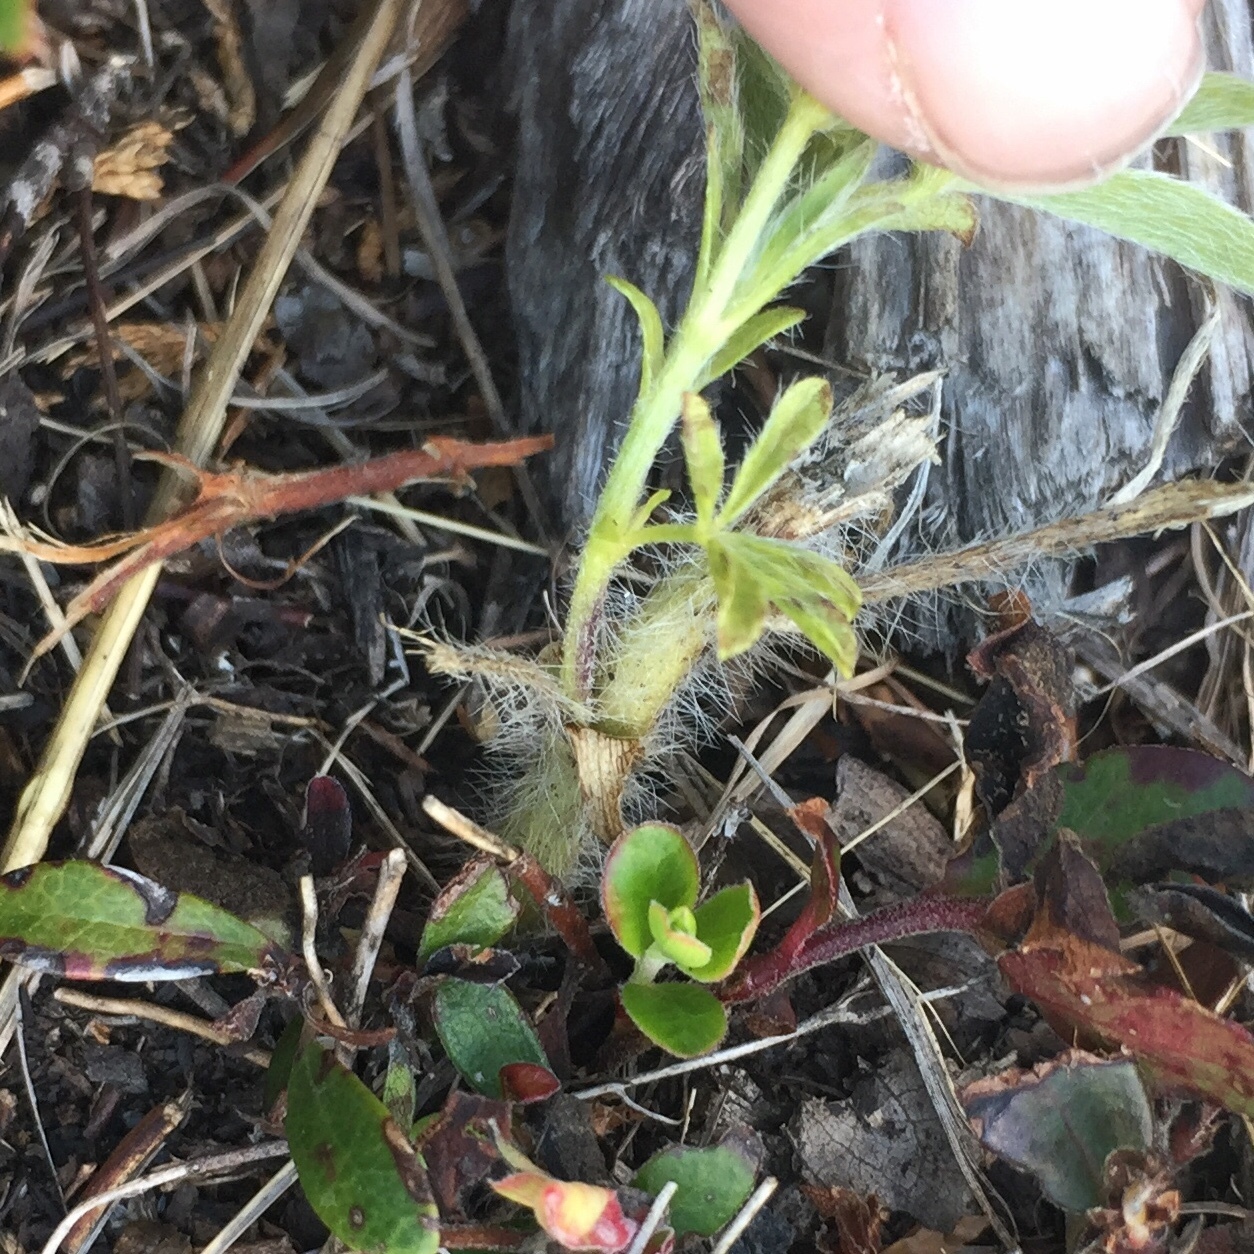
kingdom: Plantae
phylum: Tracheophyta
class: Magnoliopsida
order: Fabales
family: Fabaceae
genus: Pediomelum
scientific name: Pediomelum esculentum
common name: Indian-turnip
